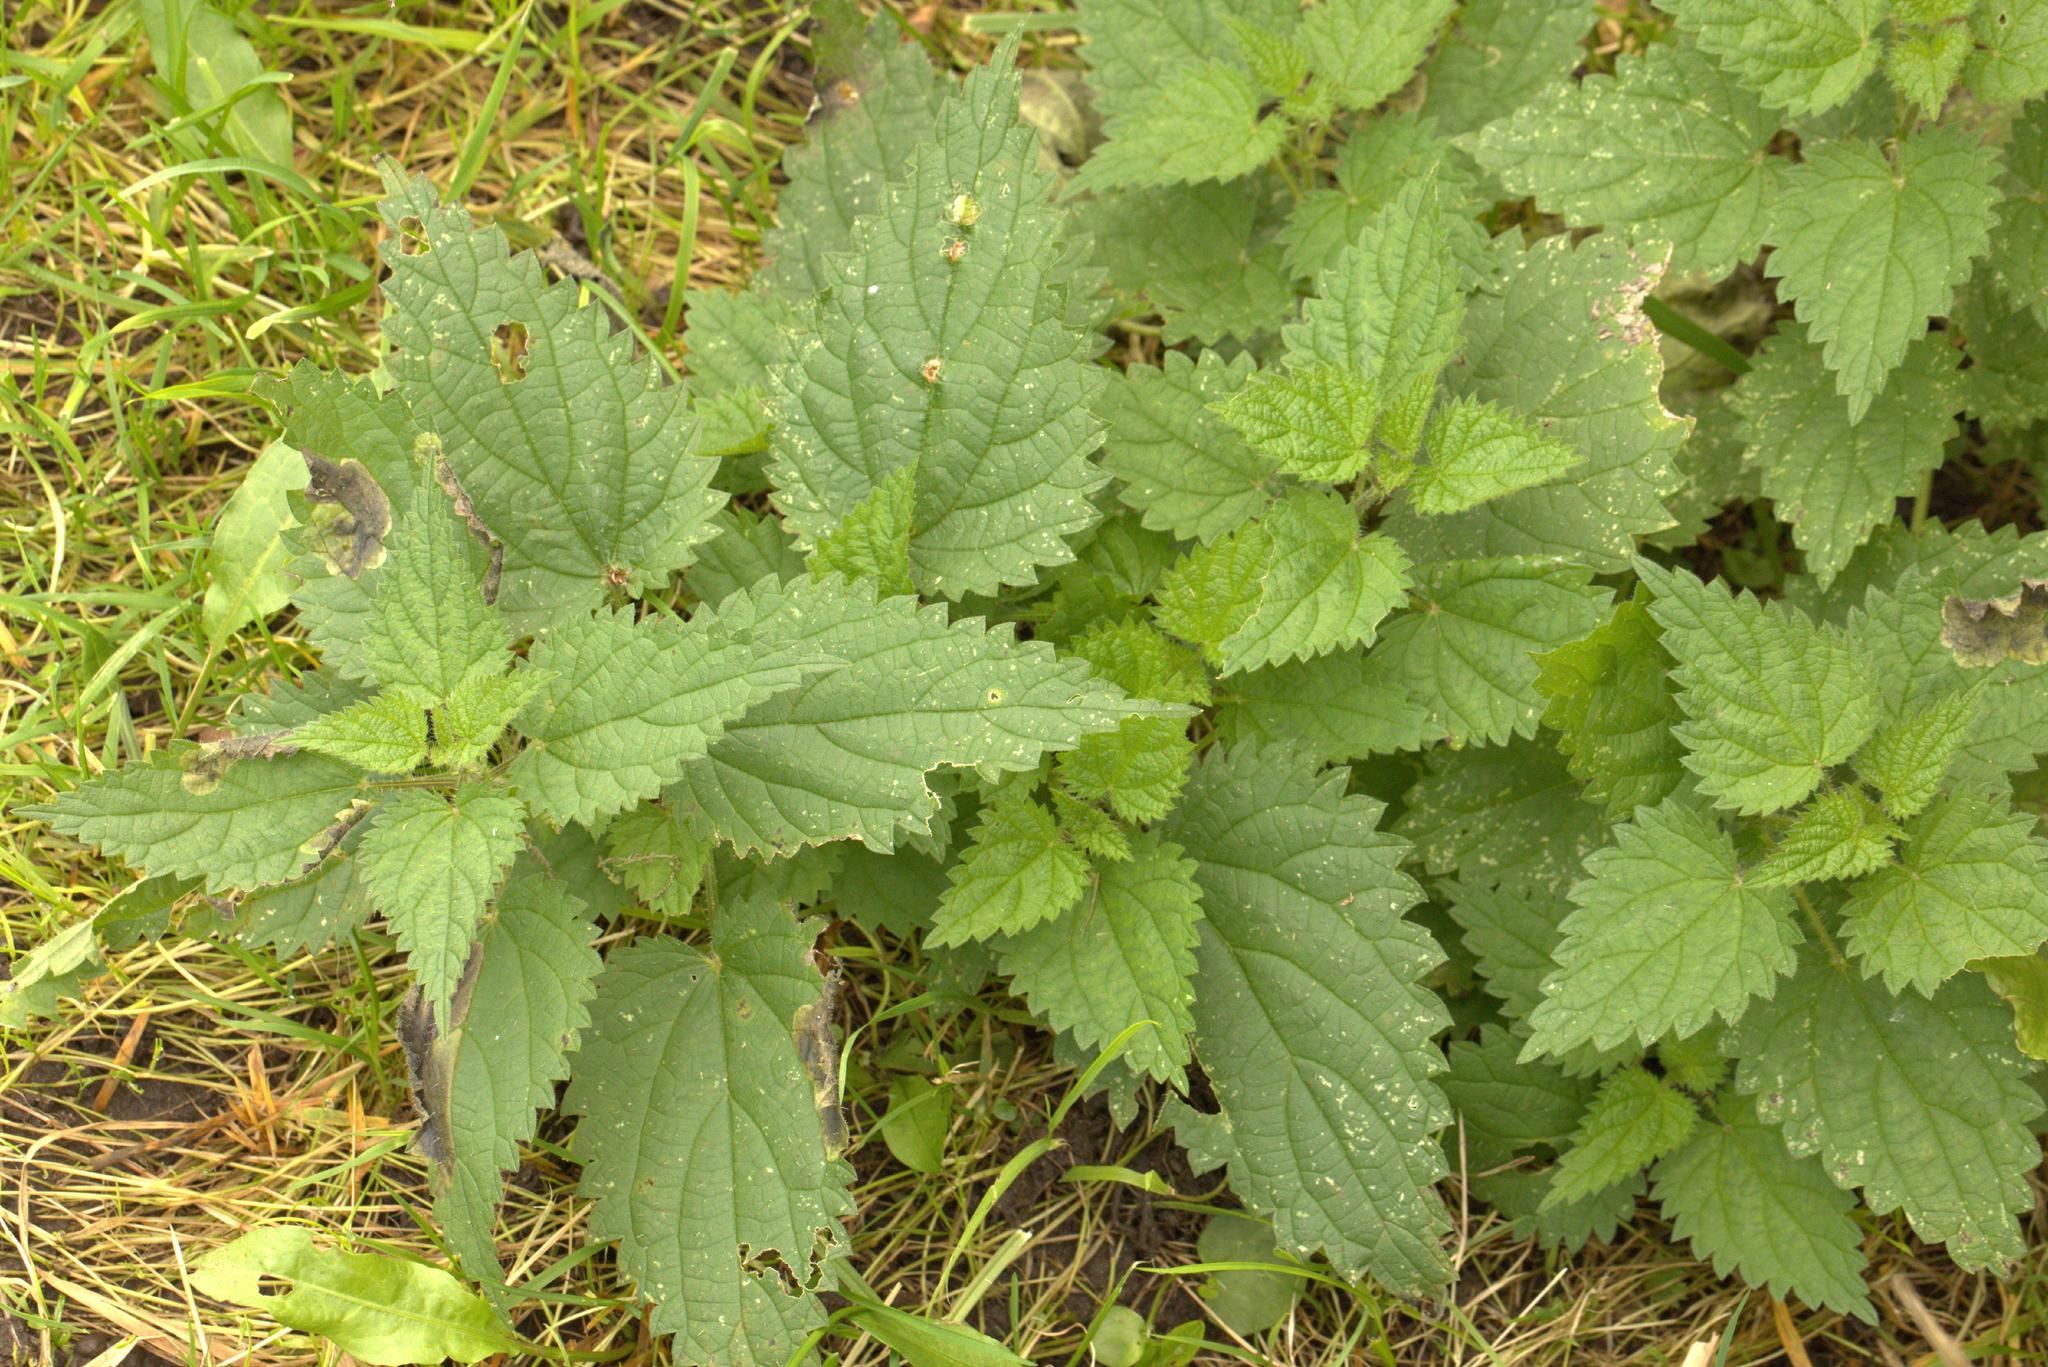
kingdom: Plantae
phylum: Tracheophyta
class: Magnoliopsida
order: Rosales
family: Urticaceae
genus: Urtica
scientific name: Urtica dioica
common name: Common nettle
